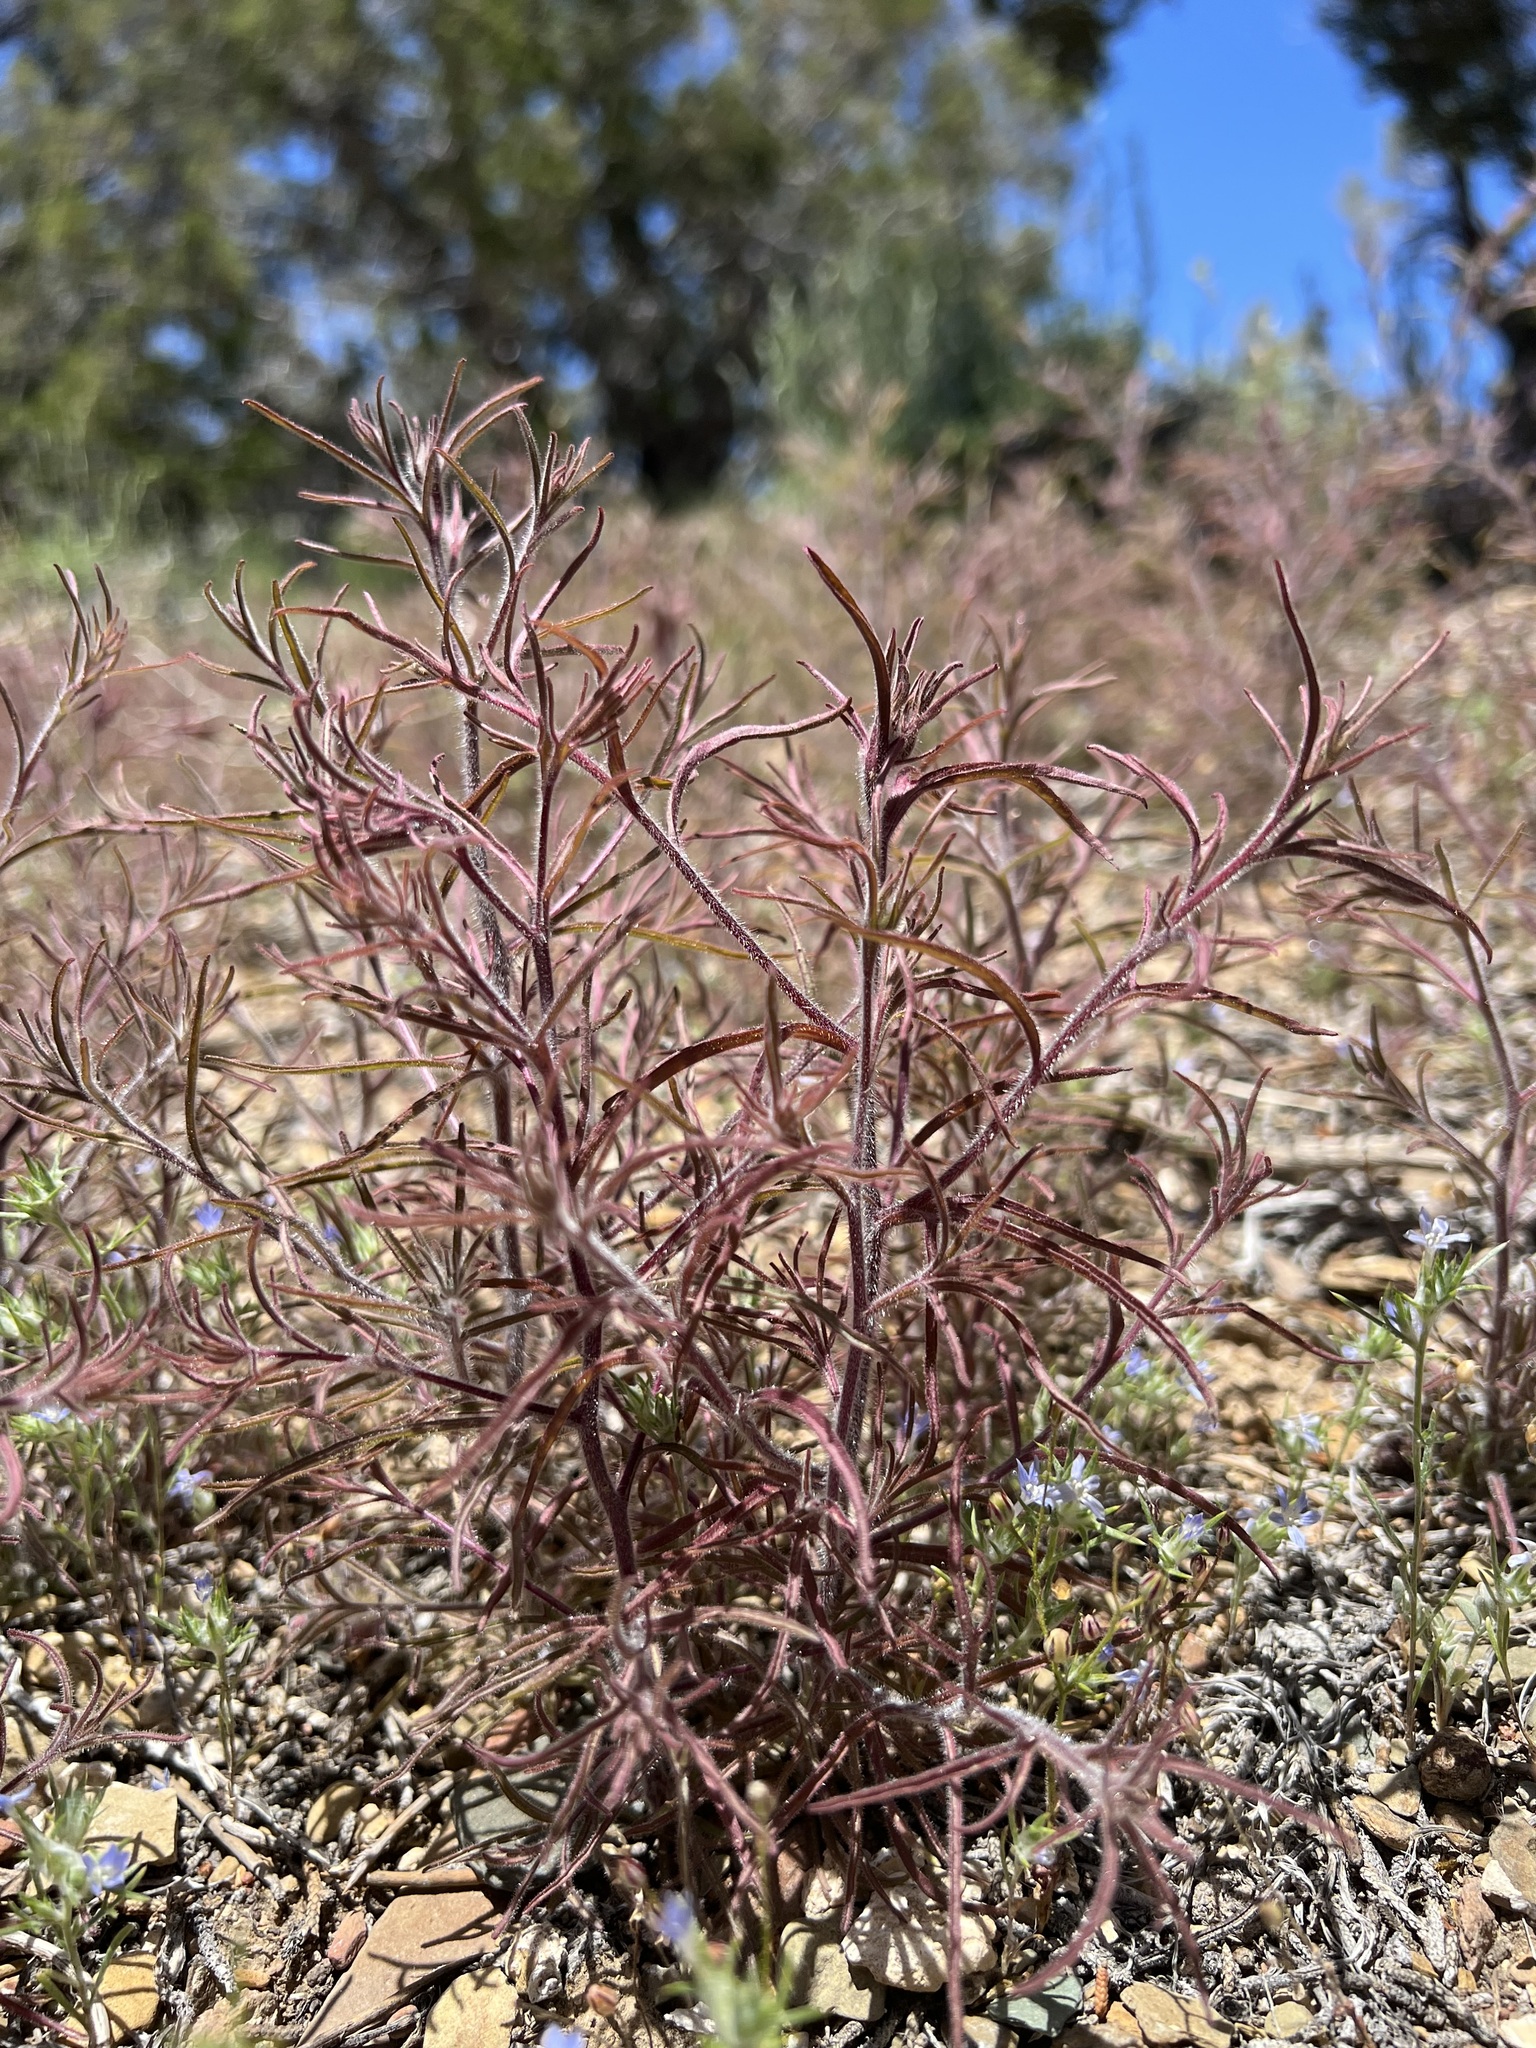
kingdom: Plantae
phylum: Tracheophyta
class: Magnoliopsida
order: Lamiales
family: Orobanchaceae
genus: Cordylanthus
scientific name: Cordylanthus kingii
